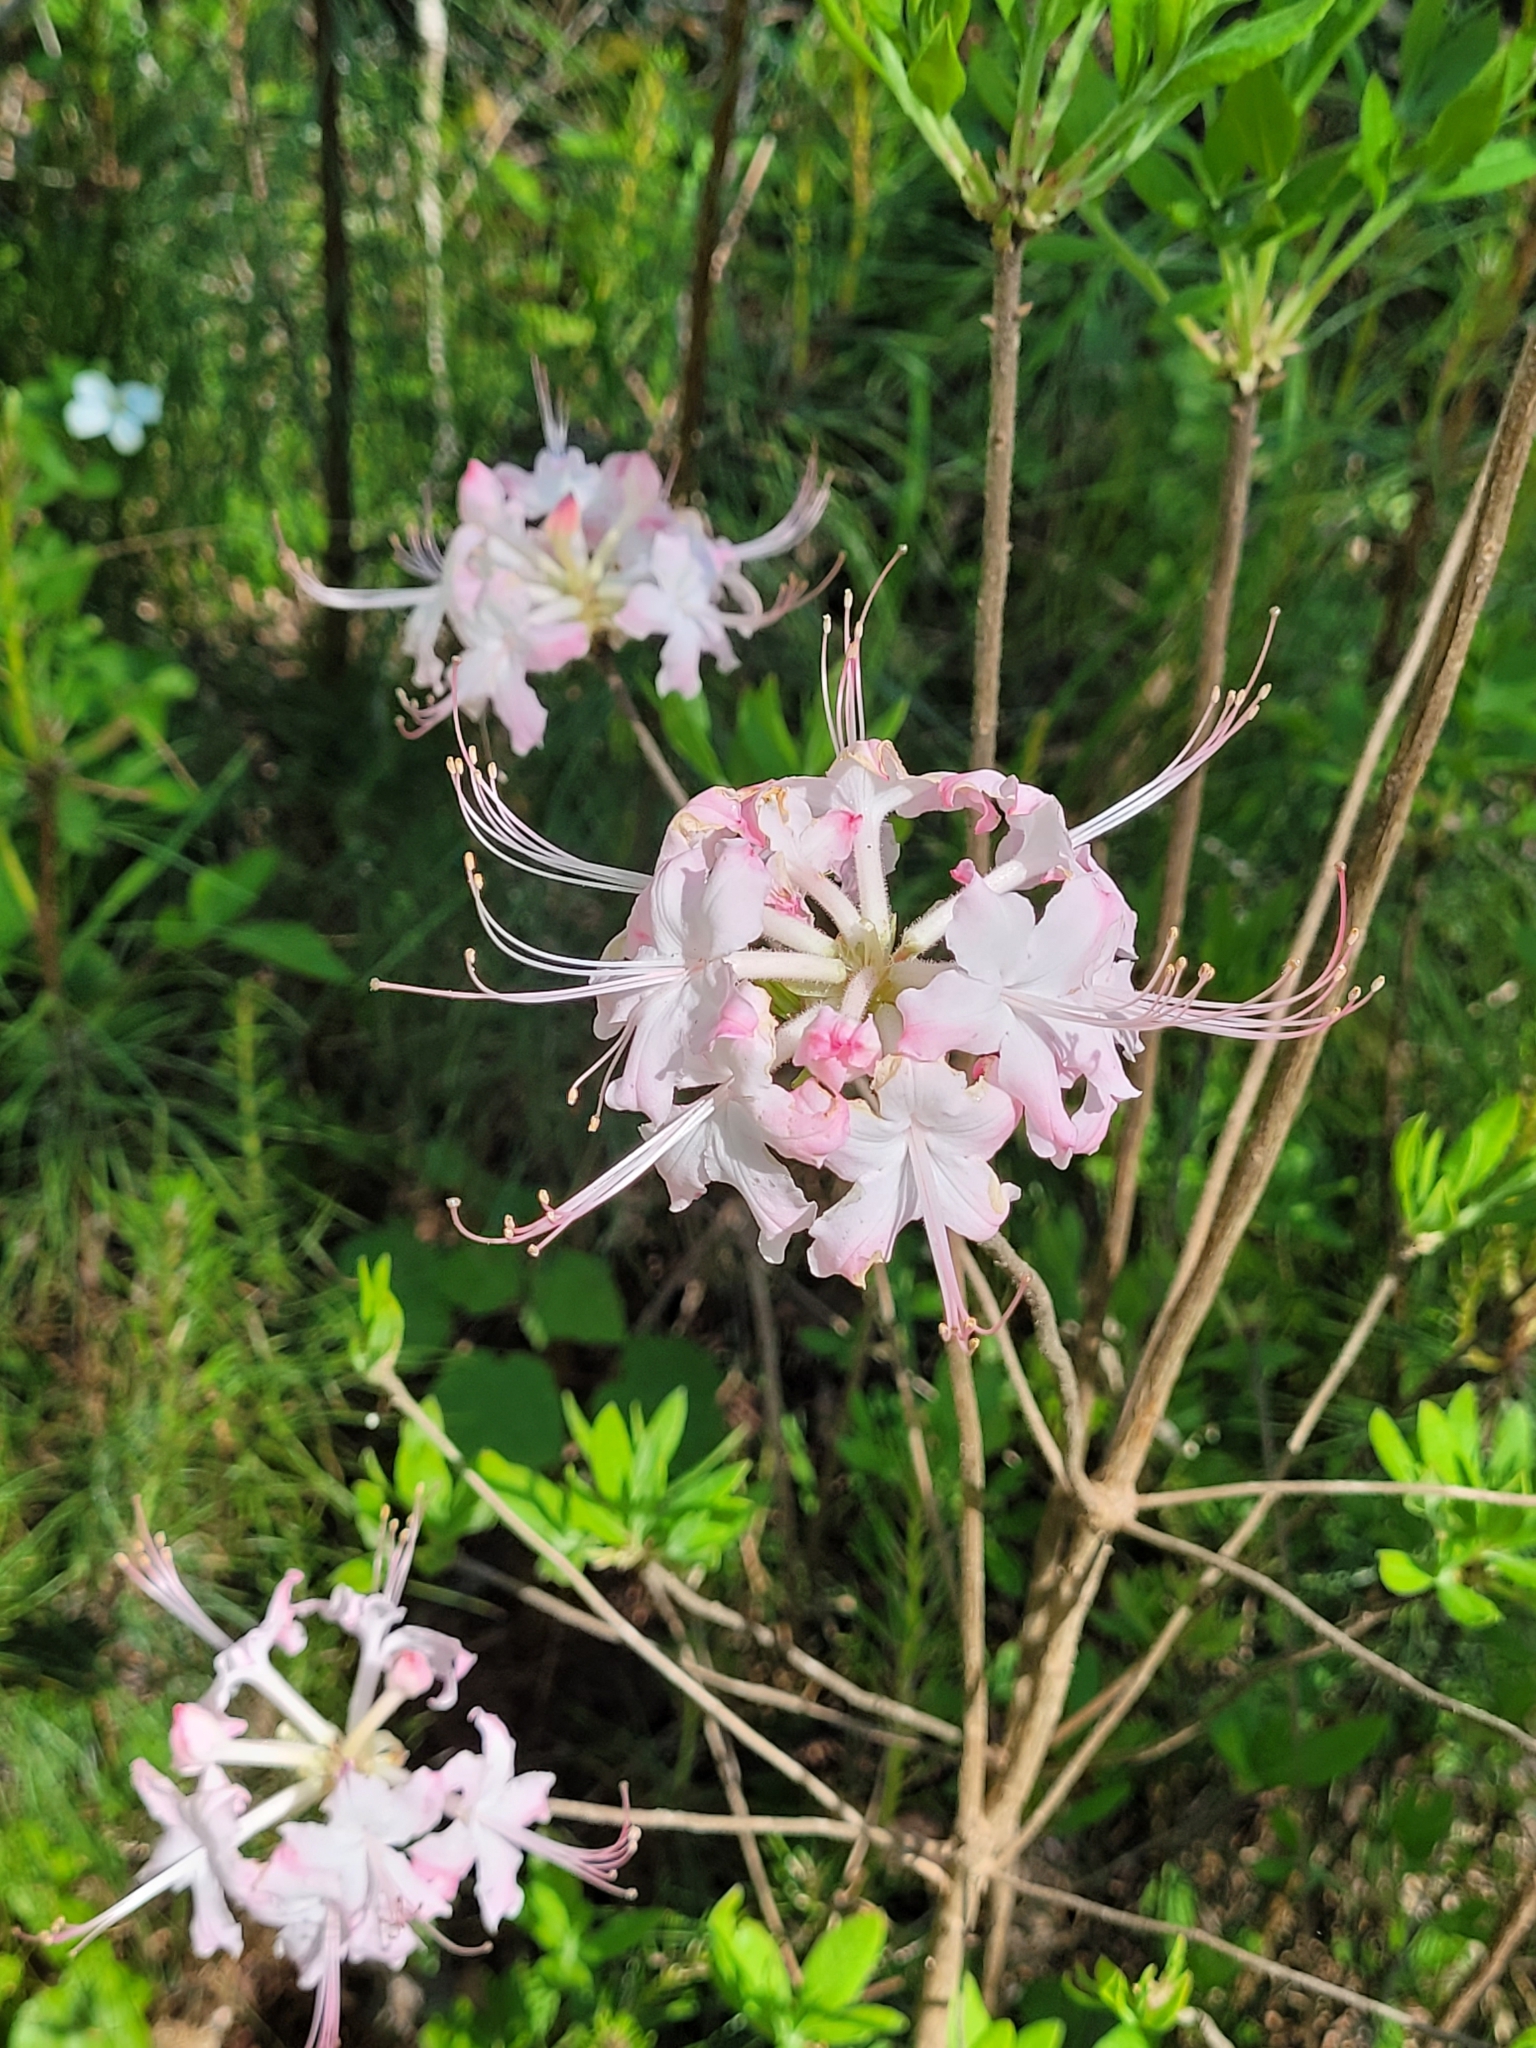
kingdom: Plantae
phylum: Tracheophyta
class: Magnoliopsida
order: Ericales
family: Ericaceae
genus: Rhododendron
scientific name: Rhododendron canescens
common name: Mountain azalea
